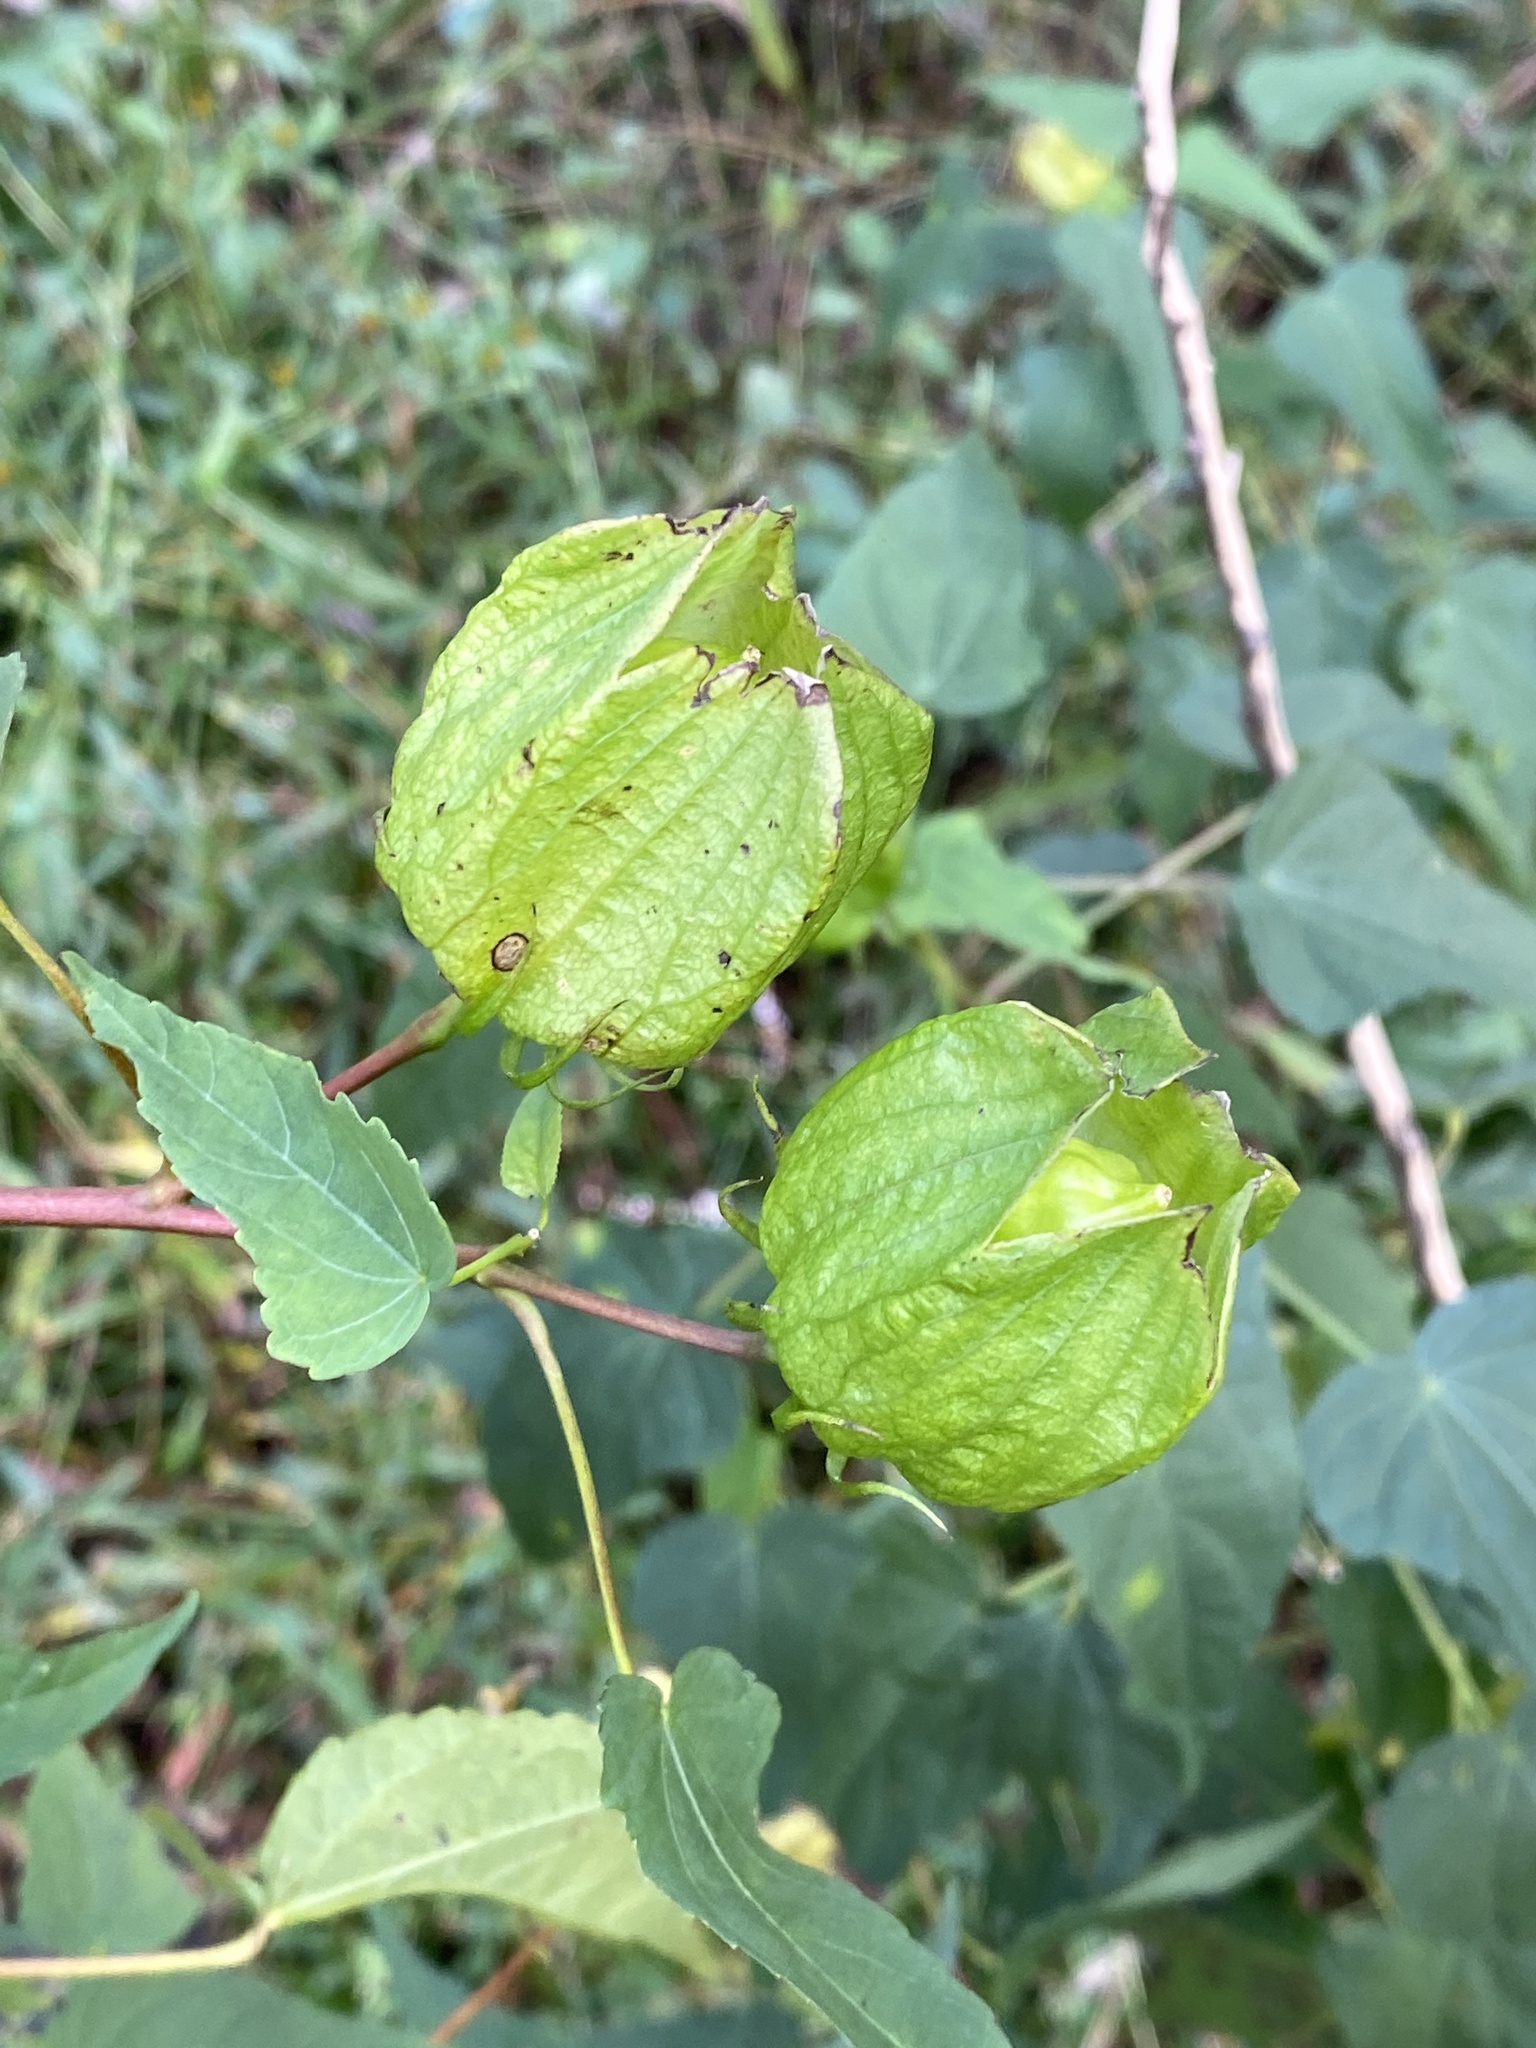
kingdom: Plantae
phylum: Tracheophyta
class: Magnoliopsida
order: Malvales
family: Malvaceae
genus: Hibiscus
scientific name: Hibiscus laevis
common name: Scarlet rose-mallow
